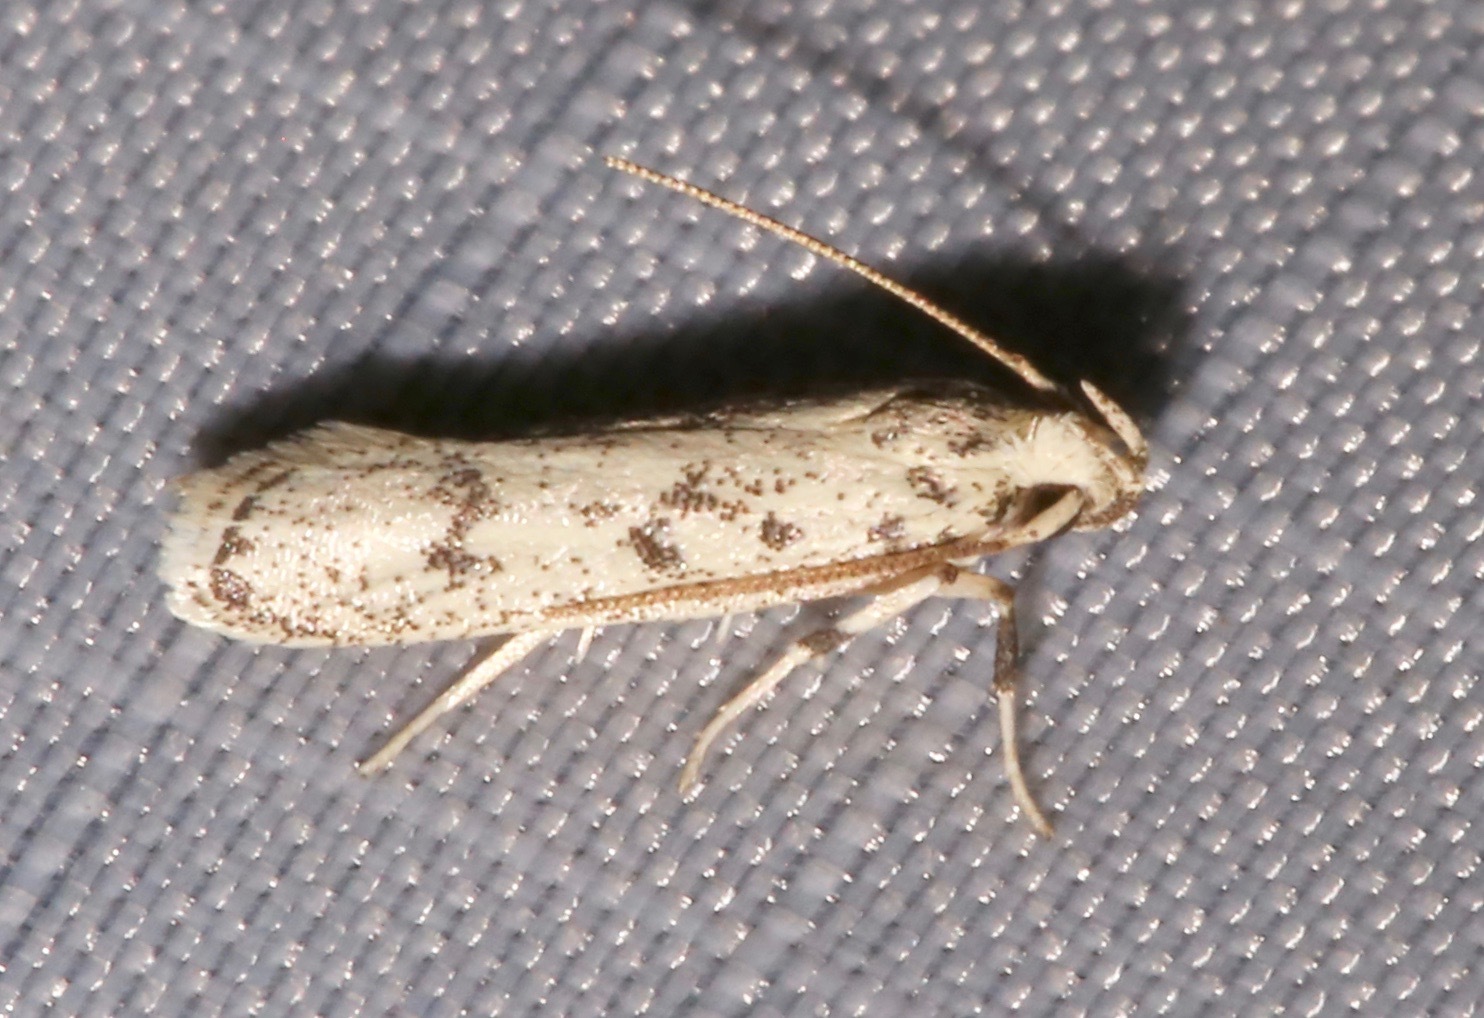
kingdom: Animalia
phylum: Arthropoda
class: Insecta
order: Lepidoptera
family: Autostichidae
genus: Glyphidocera
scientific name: Glyphidocera lactiflosella
